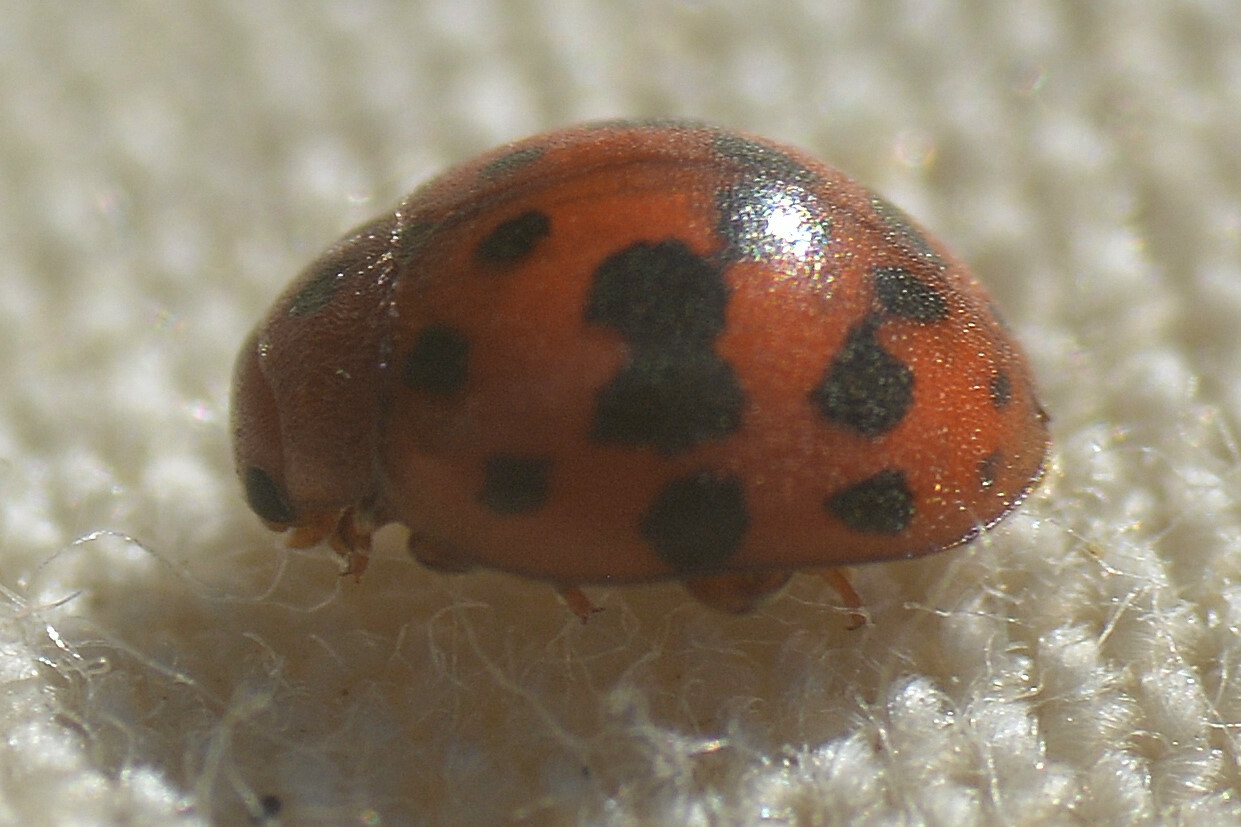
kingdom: Animalia
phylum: Arthropoda
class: Insecta
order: Coleoptera
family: Coccinellidae
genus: Subcoccinella
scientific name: Subcoccinella vigintiquatuorpunctata
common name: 24-spot ladybird
